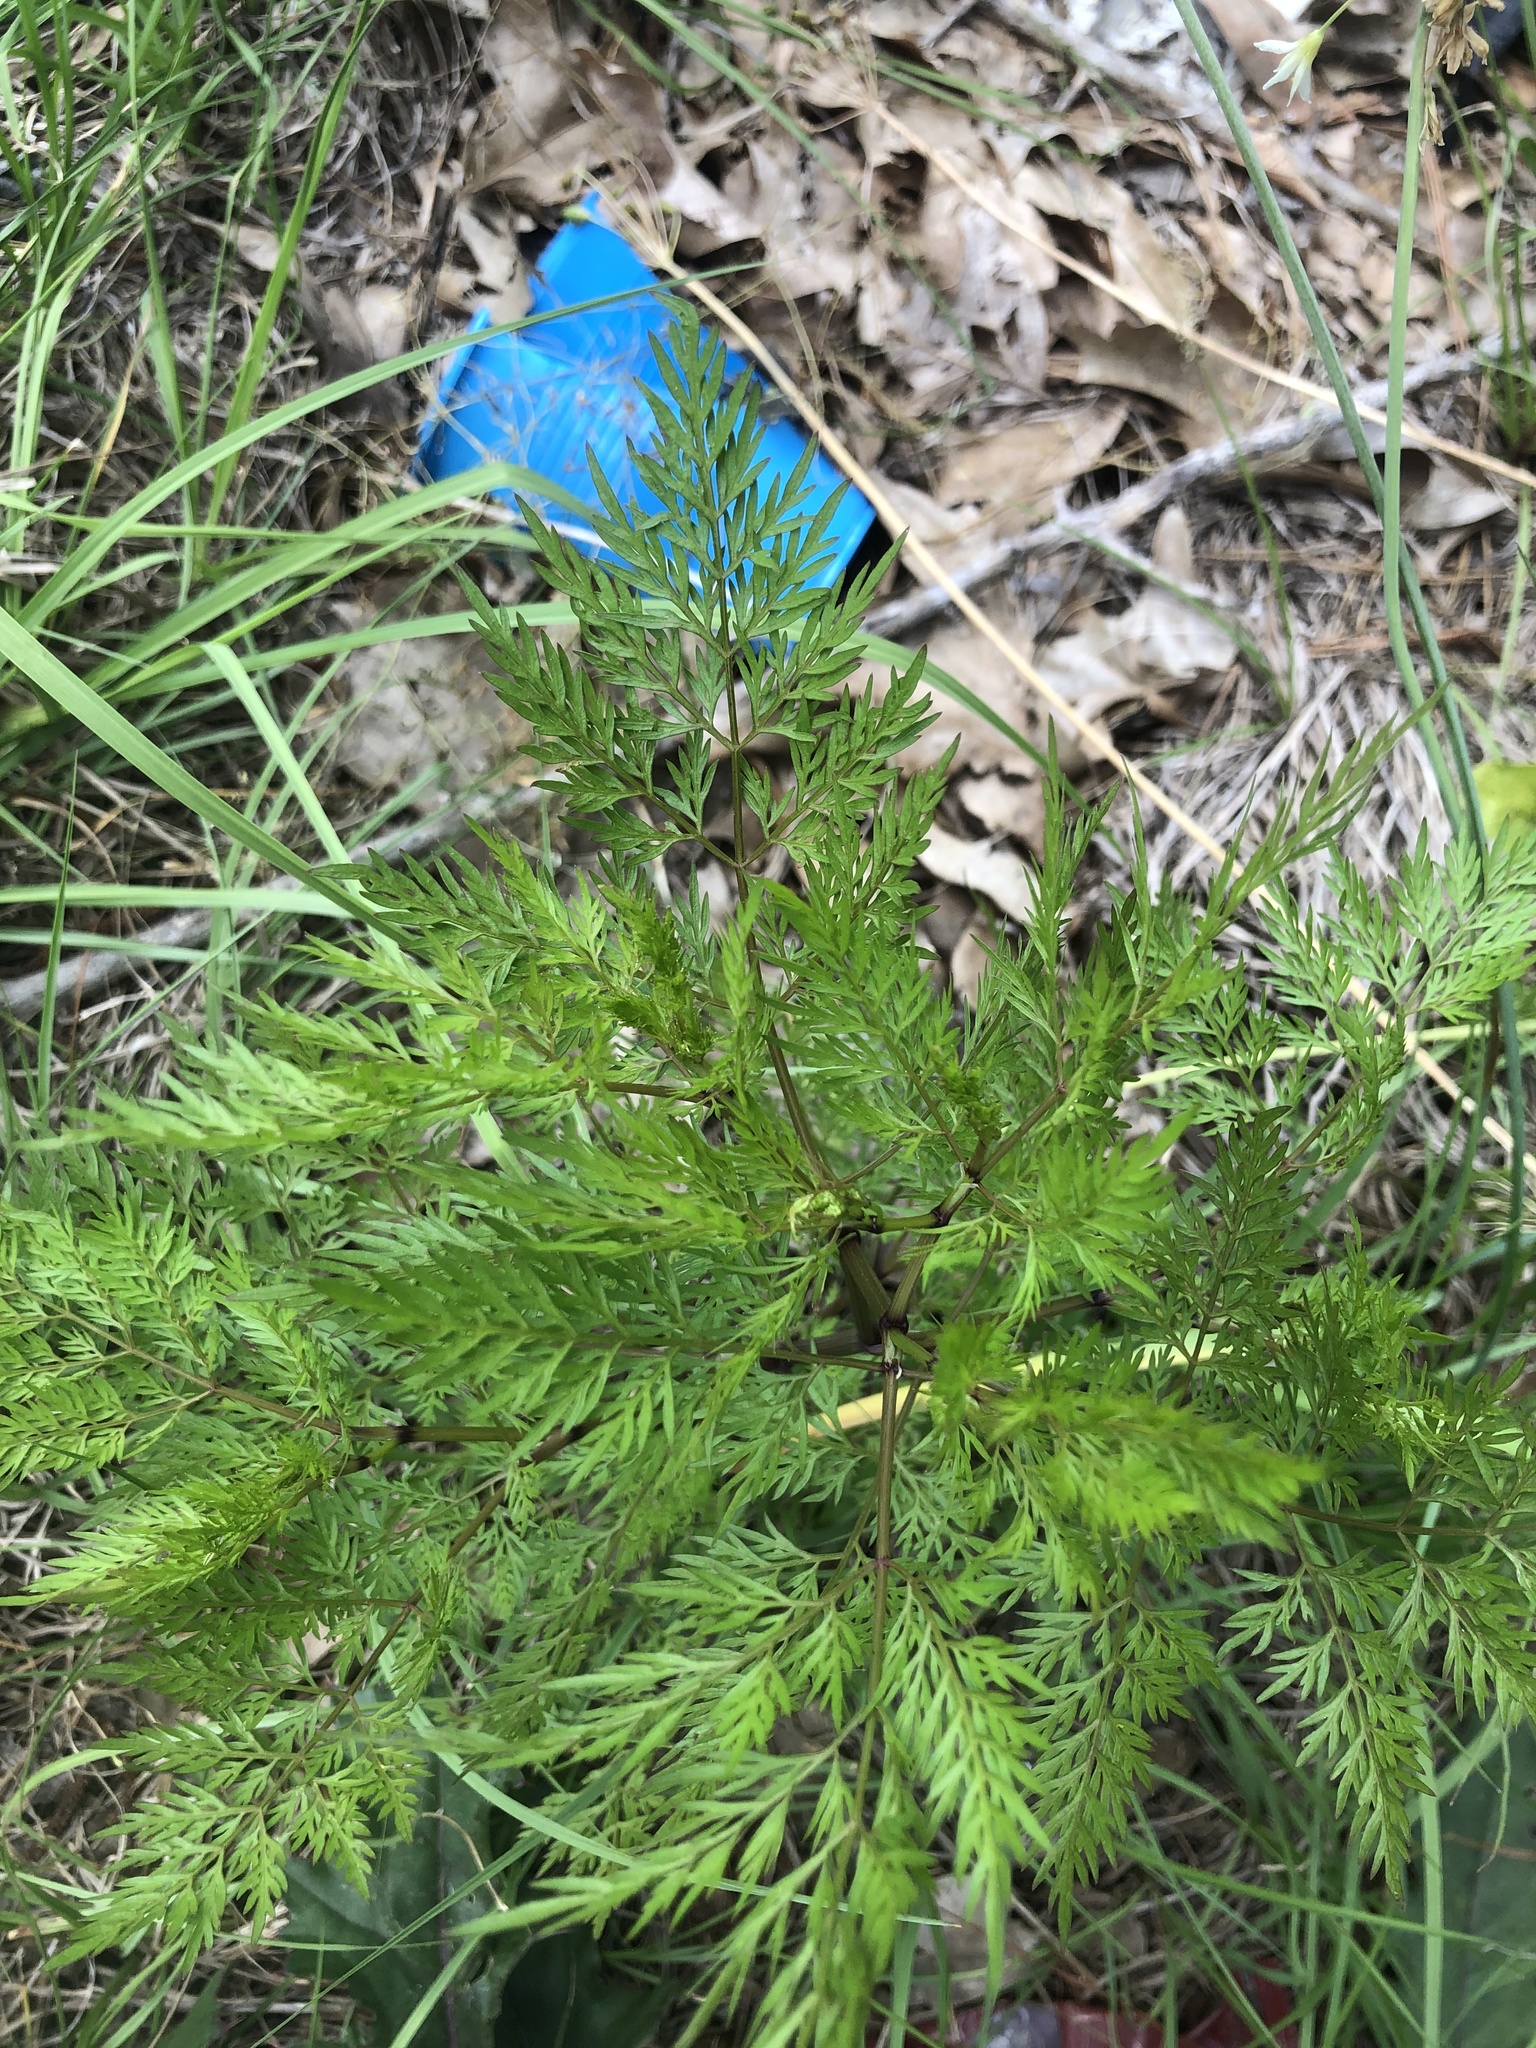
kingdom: Plantae
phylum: Tracheophyta
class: Magnoliopsida
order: Apiales
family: Apiaceae
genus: Trepocarpus
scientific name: Trepocarpus aethusae
